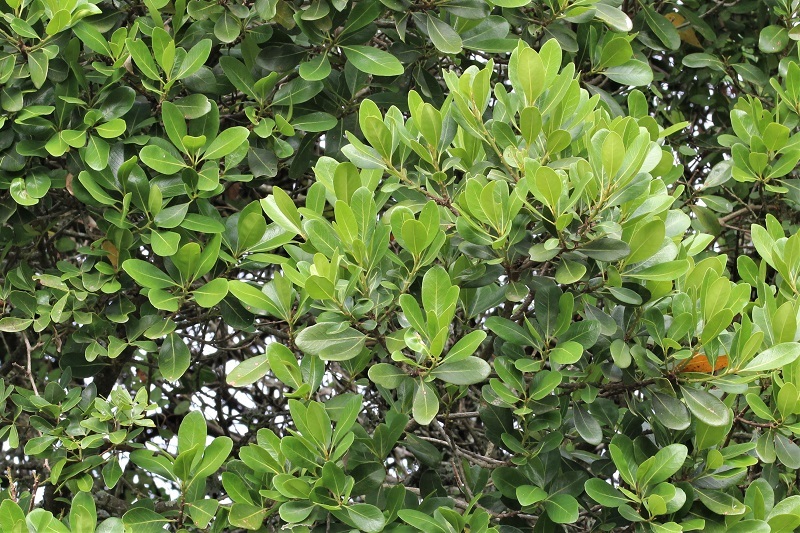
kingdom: Plantae
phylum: Tracheophyta
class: Magnoliopsida
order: Ericales
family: Sapotaceae
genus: Sideroxylon
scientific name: Sideroxylon inerme
